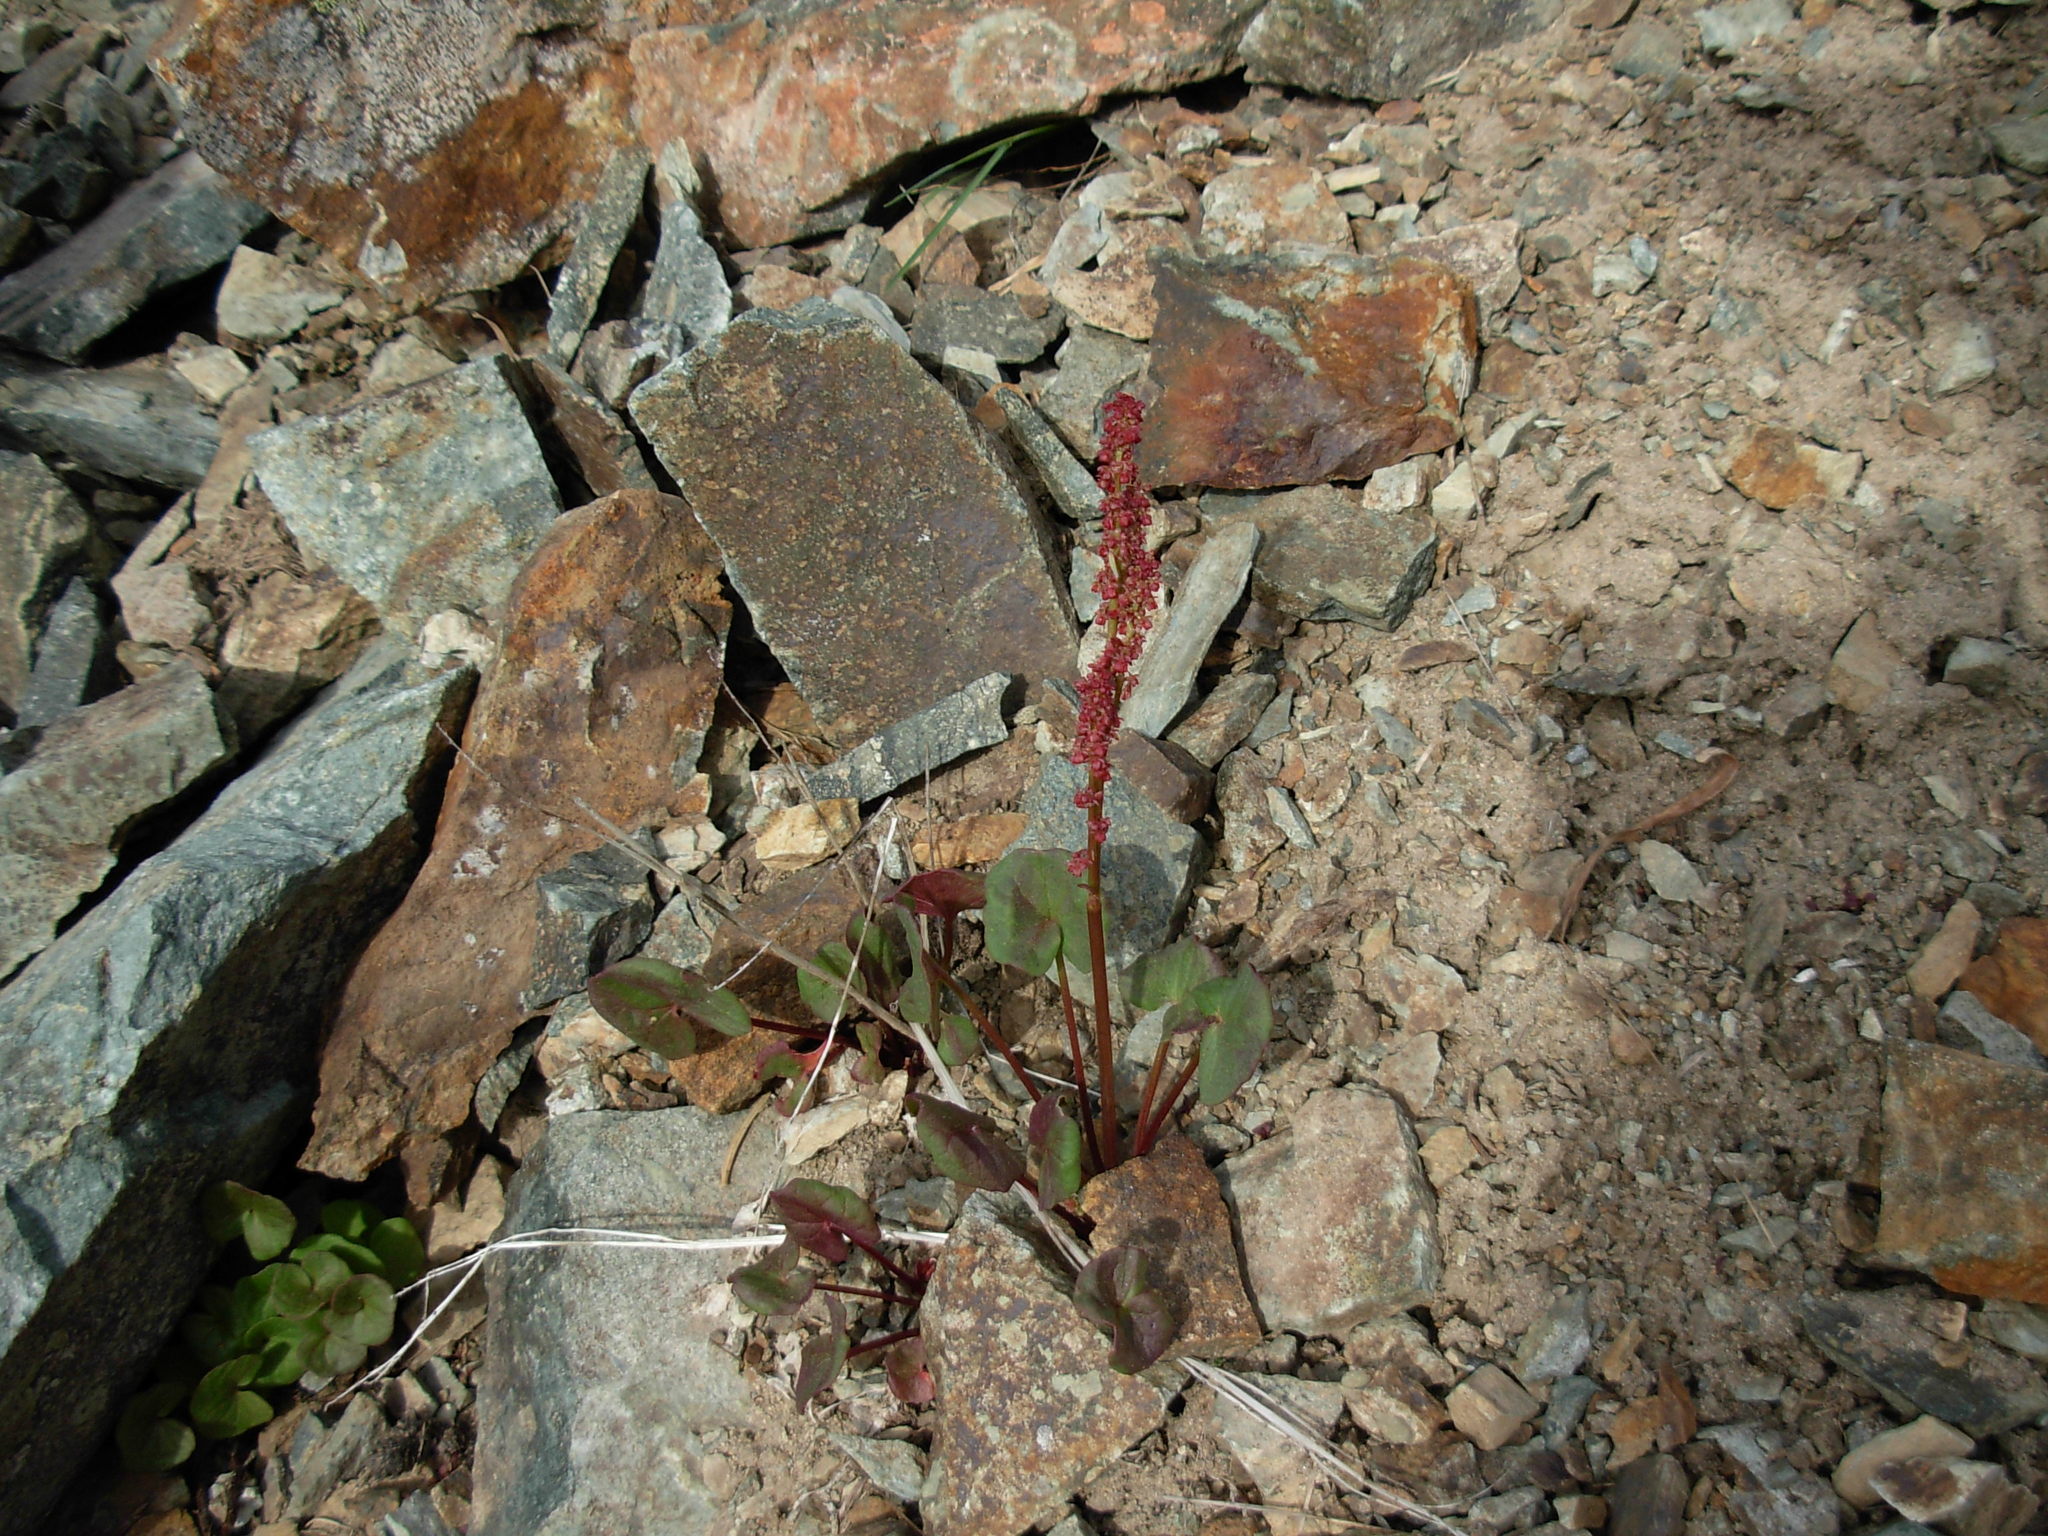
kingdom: Plantae
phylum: Tracheophyta
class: Magnoliopsida
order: Caryophyllales
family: Polygonaceae
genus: Oxyria
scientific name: Oxyria digyna
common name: Alpine mountain-sorrel
